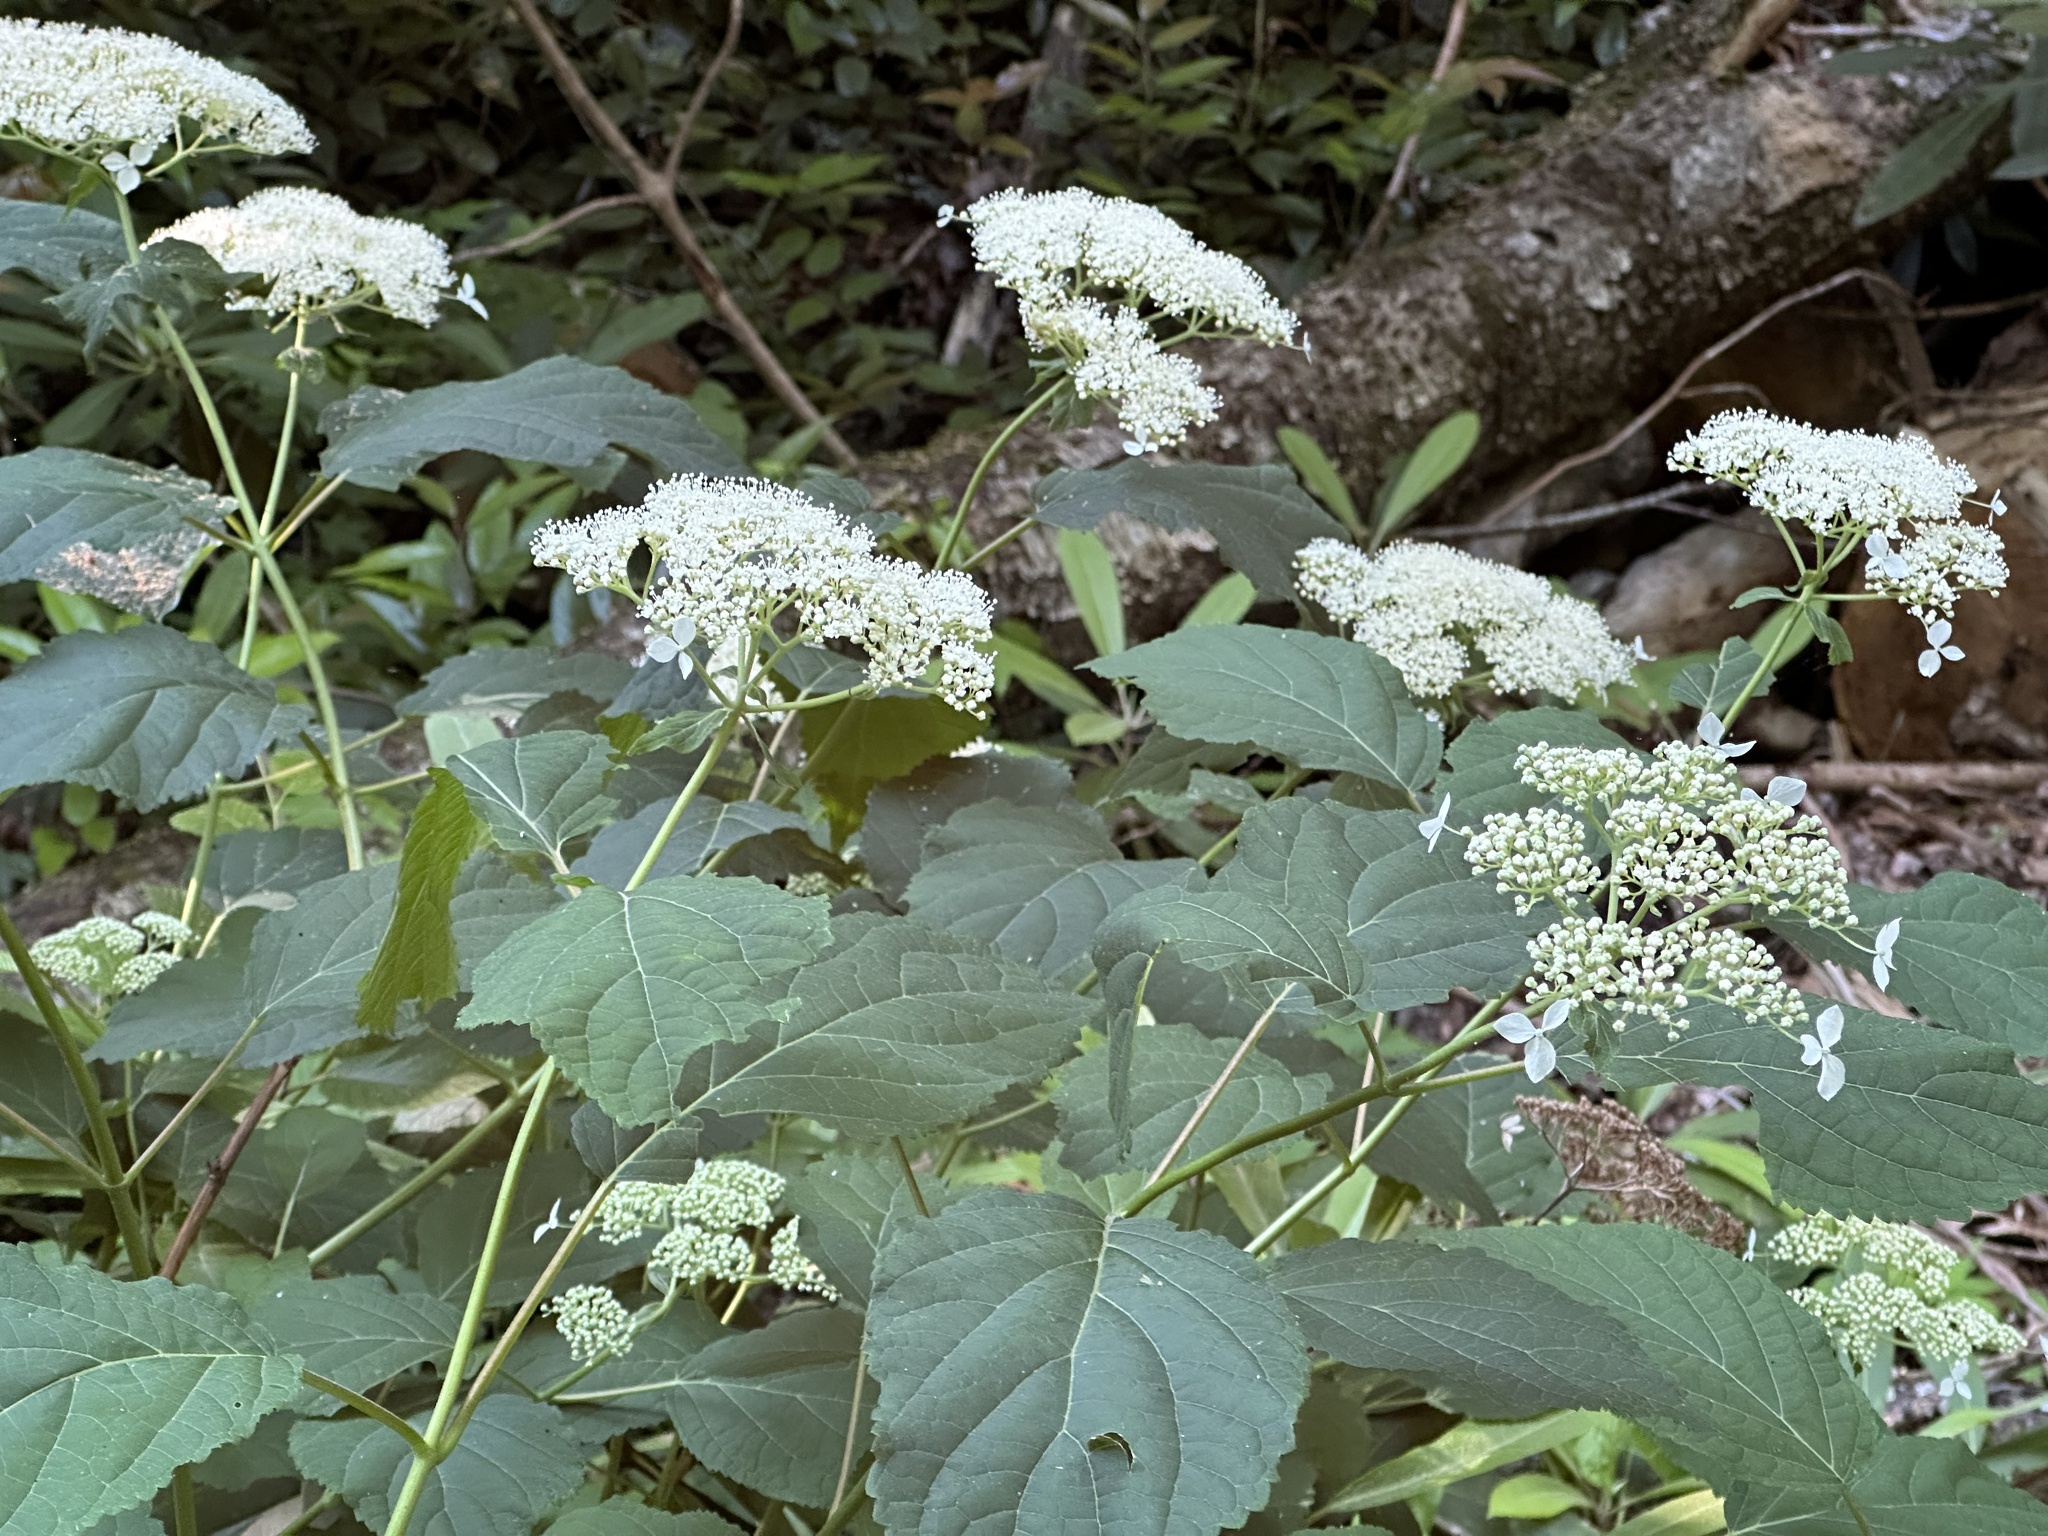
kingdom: Plantae
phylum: Tracheophyta
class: Magnoliopsida
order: Cornales
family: Hydrangeaceae
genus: Hydrangea
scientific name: Hydrangea arborescens
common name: Sevenbark
